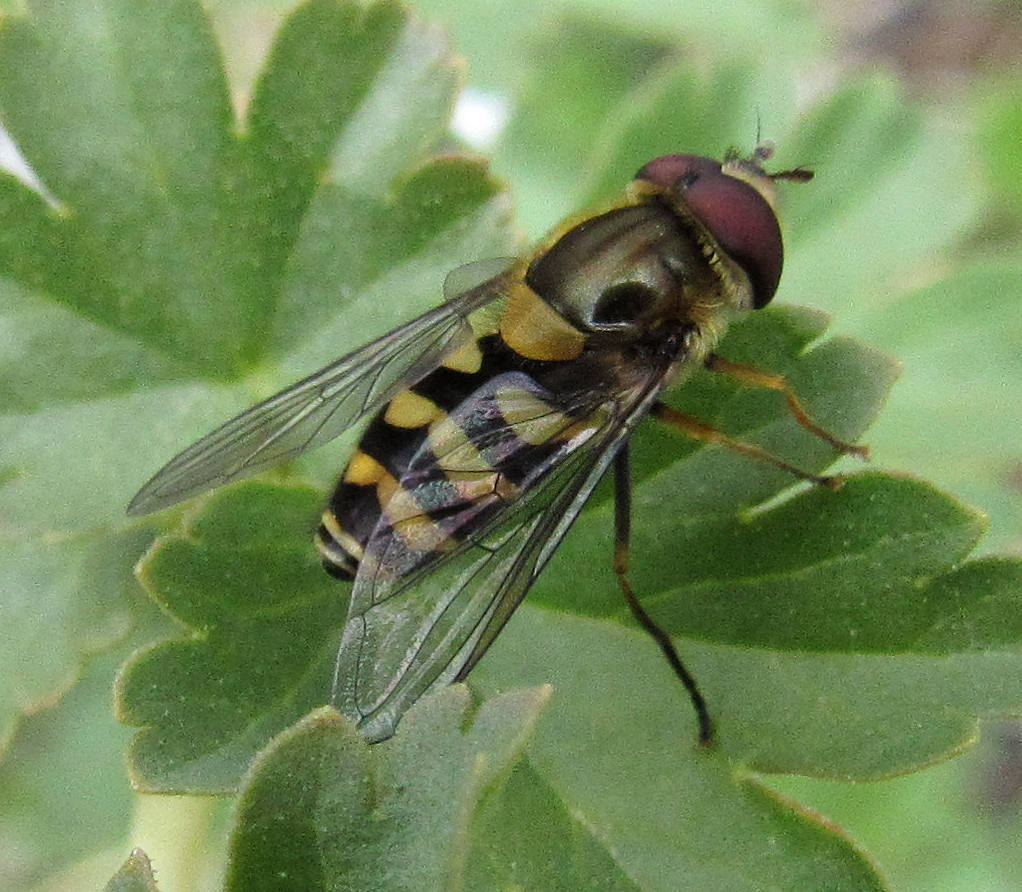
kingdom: Animalia
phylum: Arthropoda
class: Insecta
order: Diptera
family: Syrphidae
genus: Syrphus
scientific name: Syrphus
